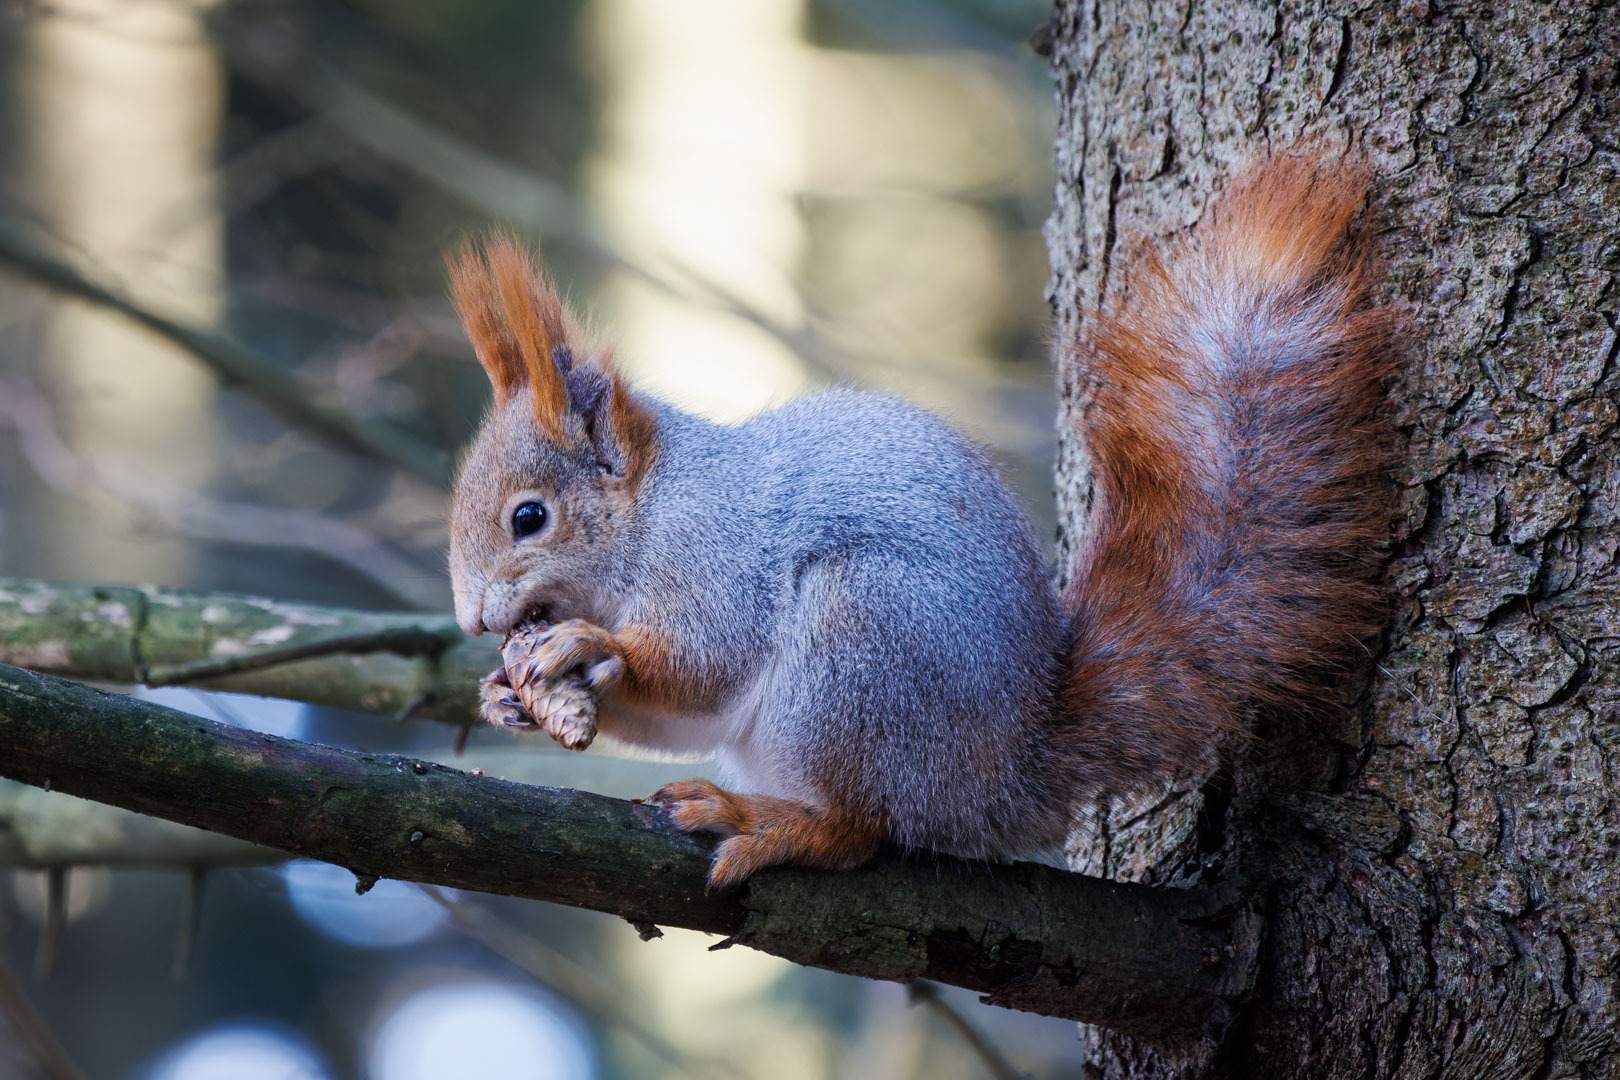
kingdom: Animalia
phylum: Chordata
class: Mammalia
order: Rodentia
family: Sciuridae
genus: Sciurus
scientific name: Sciurus vulgaris
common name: Eurasian red squirrel
